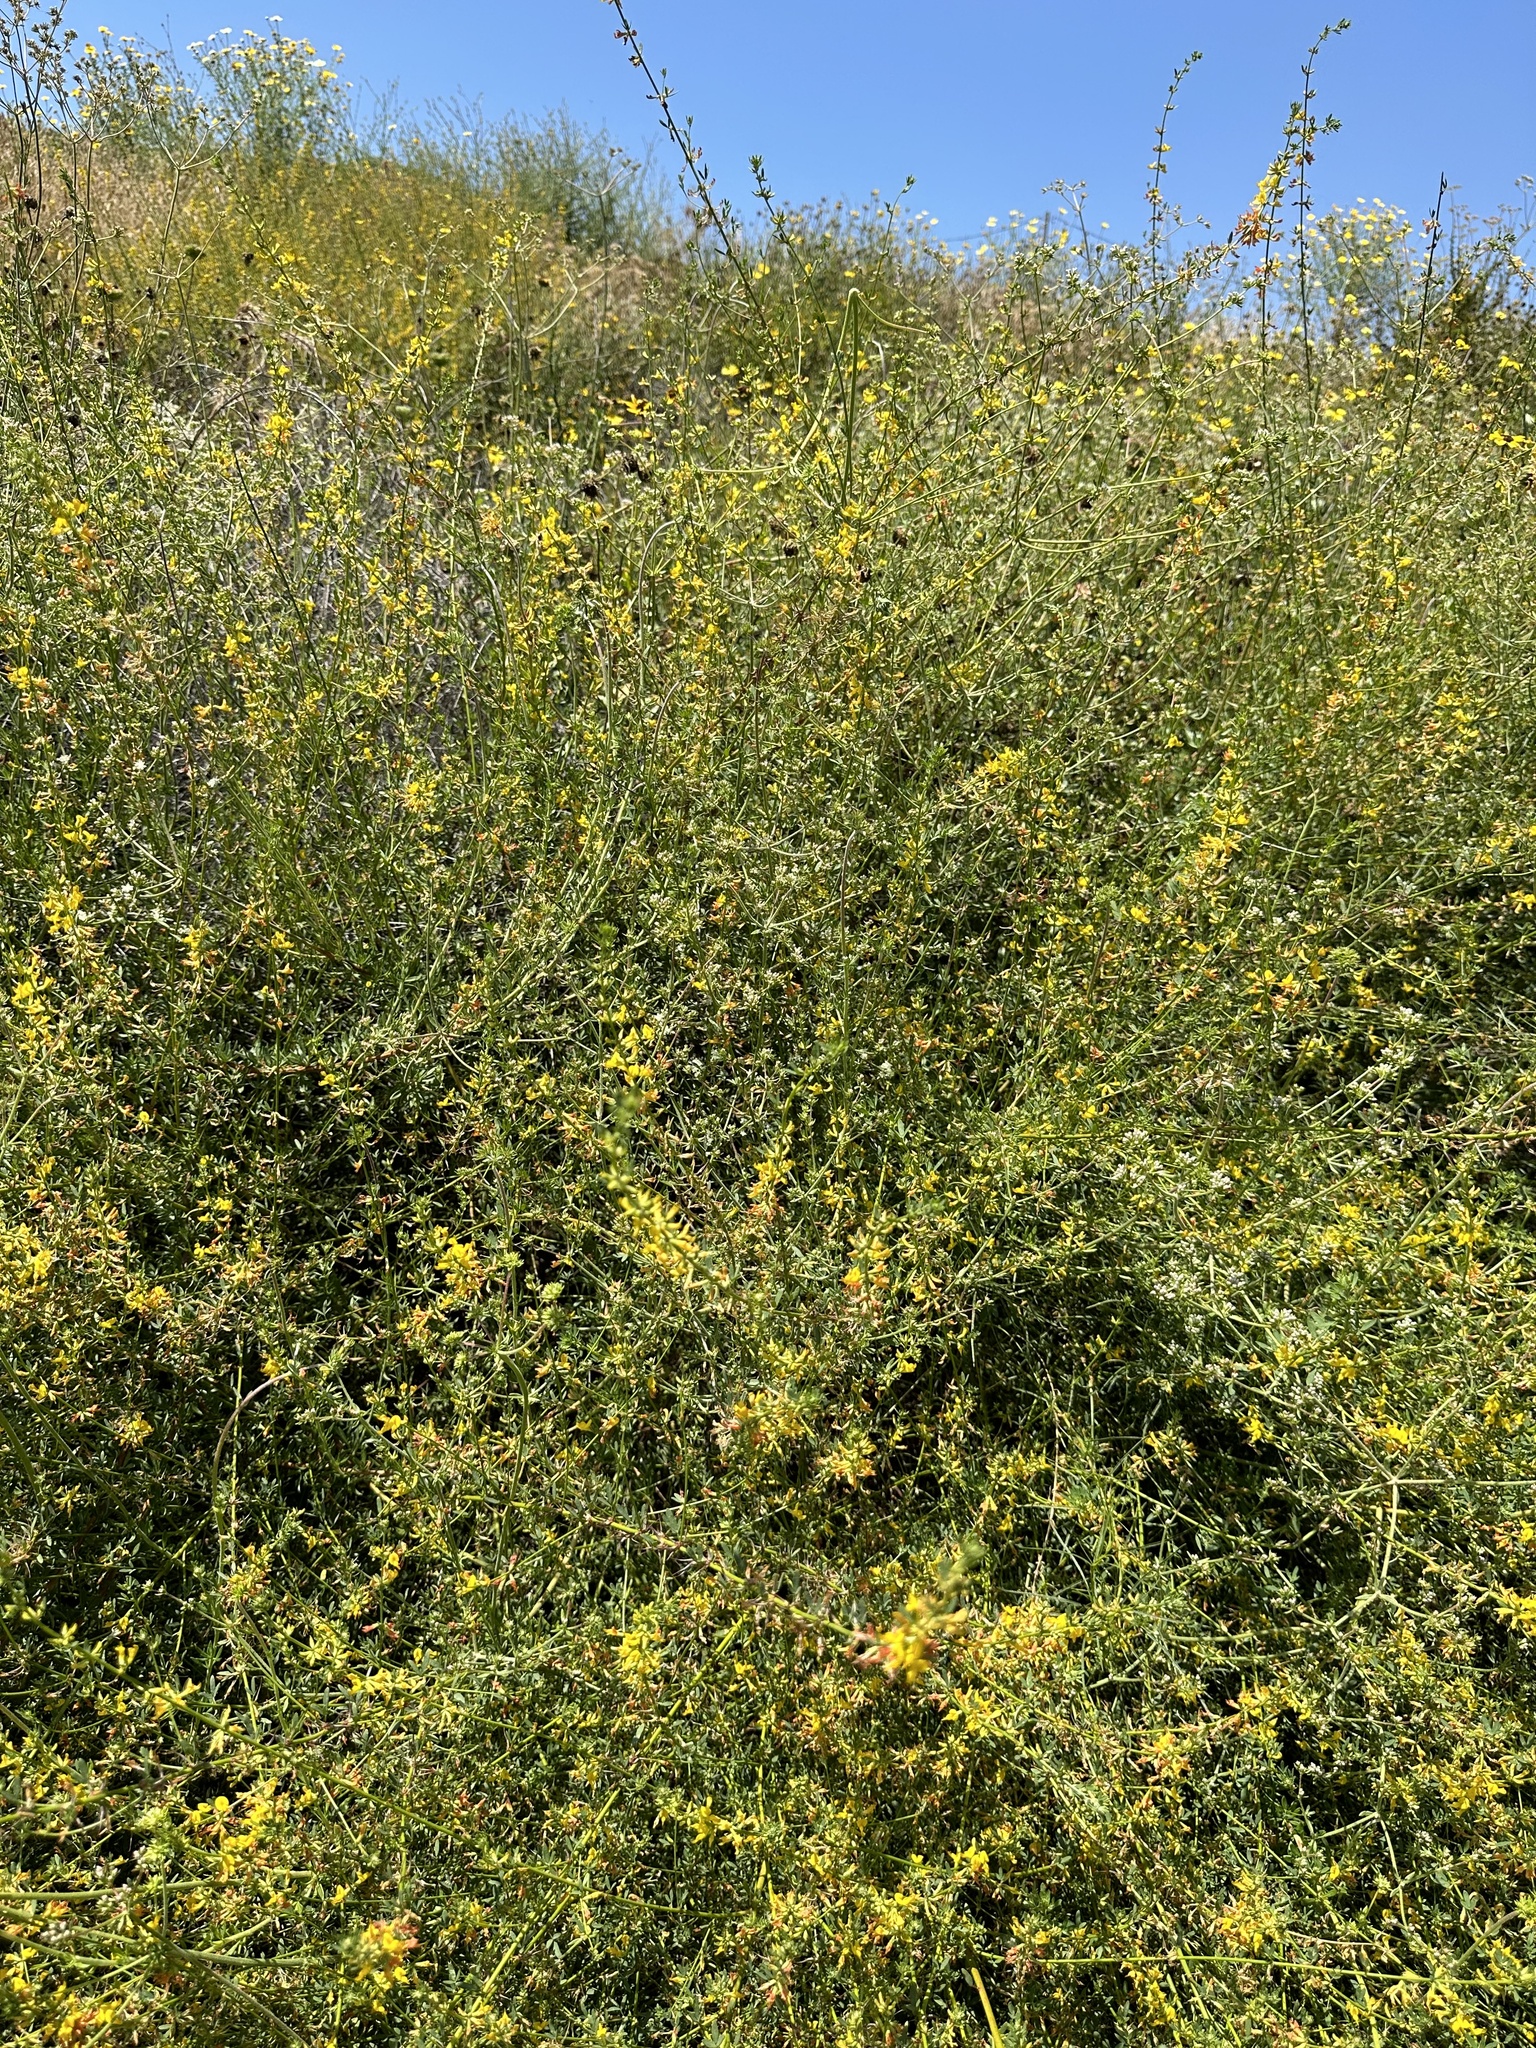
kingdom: Plantae
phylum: Tracheophyta
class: Magnoliopsida
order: Fabales
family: Fabaceae
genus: Acmispon
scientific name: Acmispon glaber
